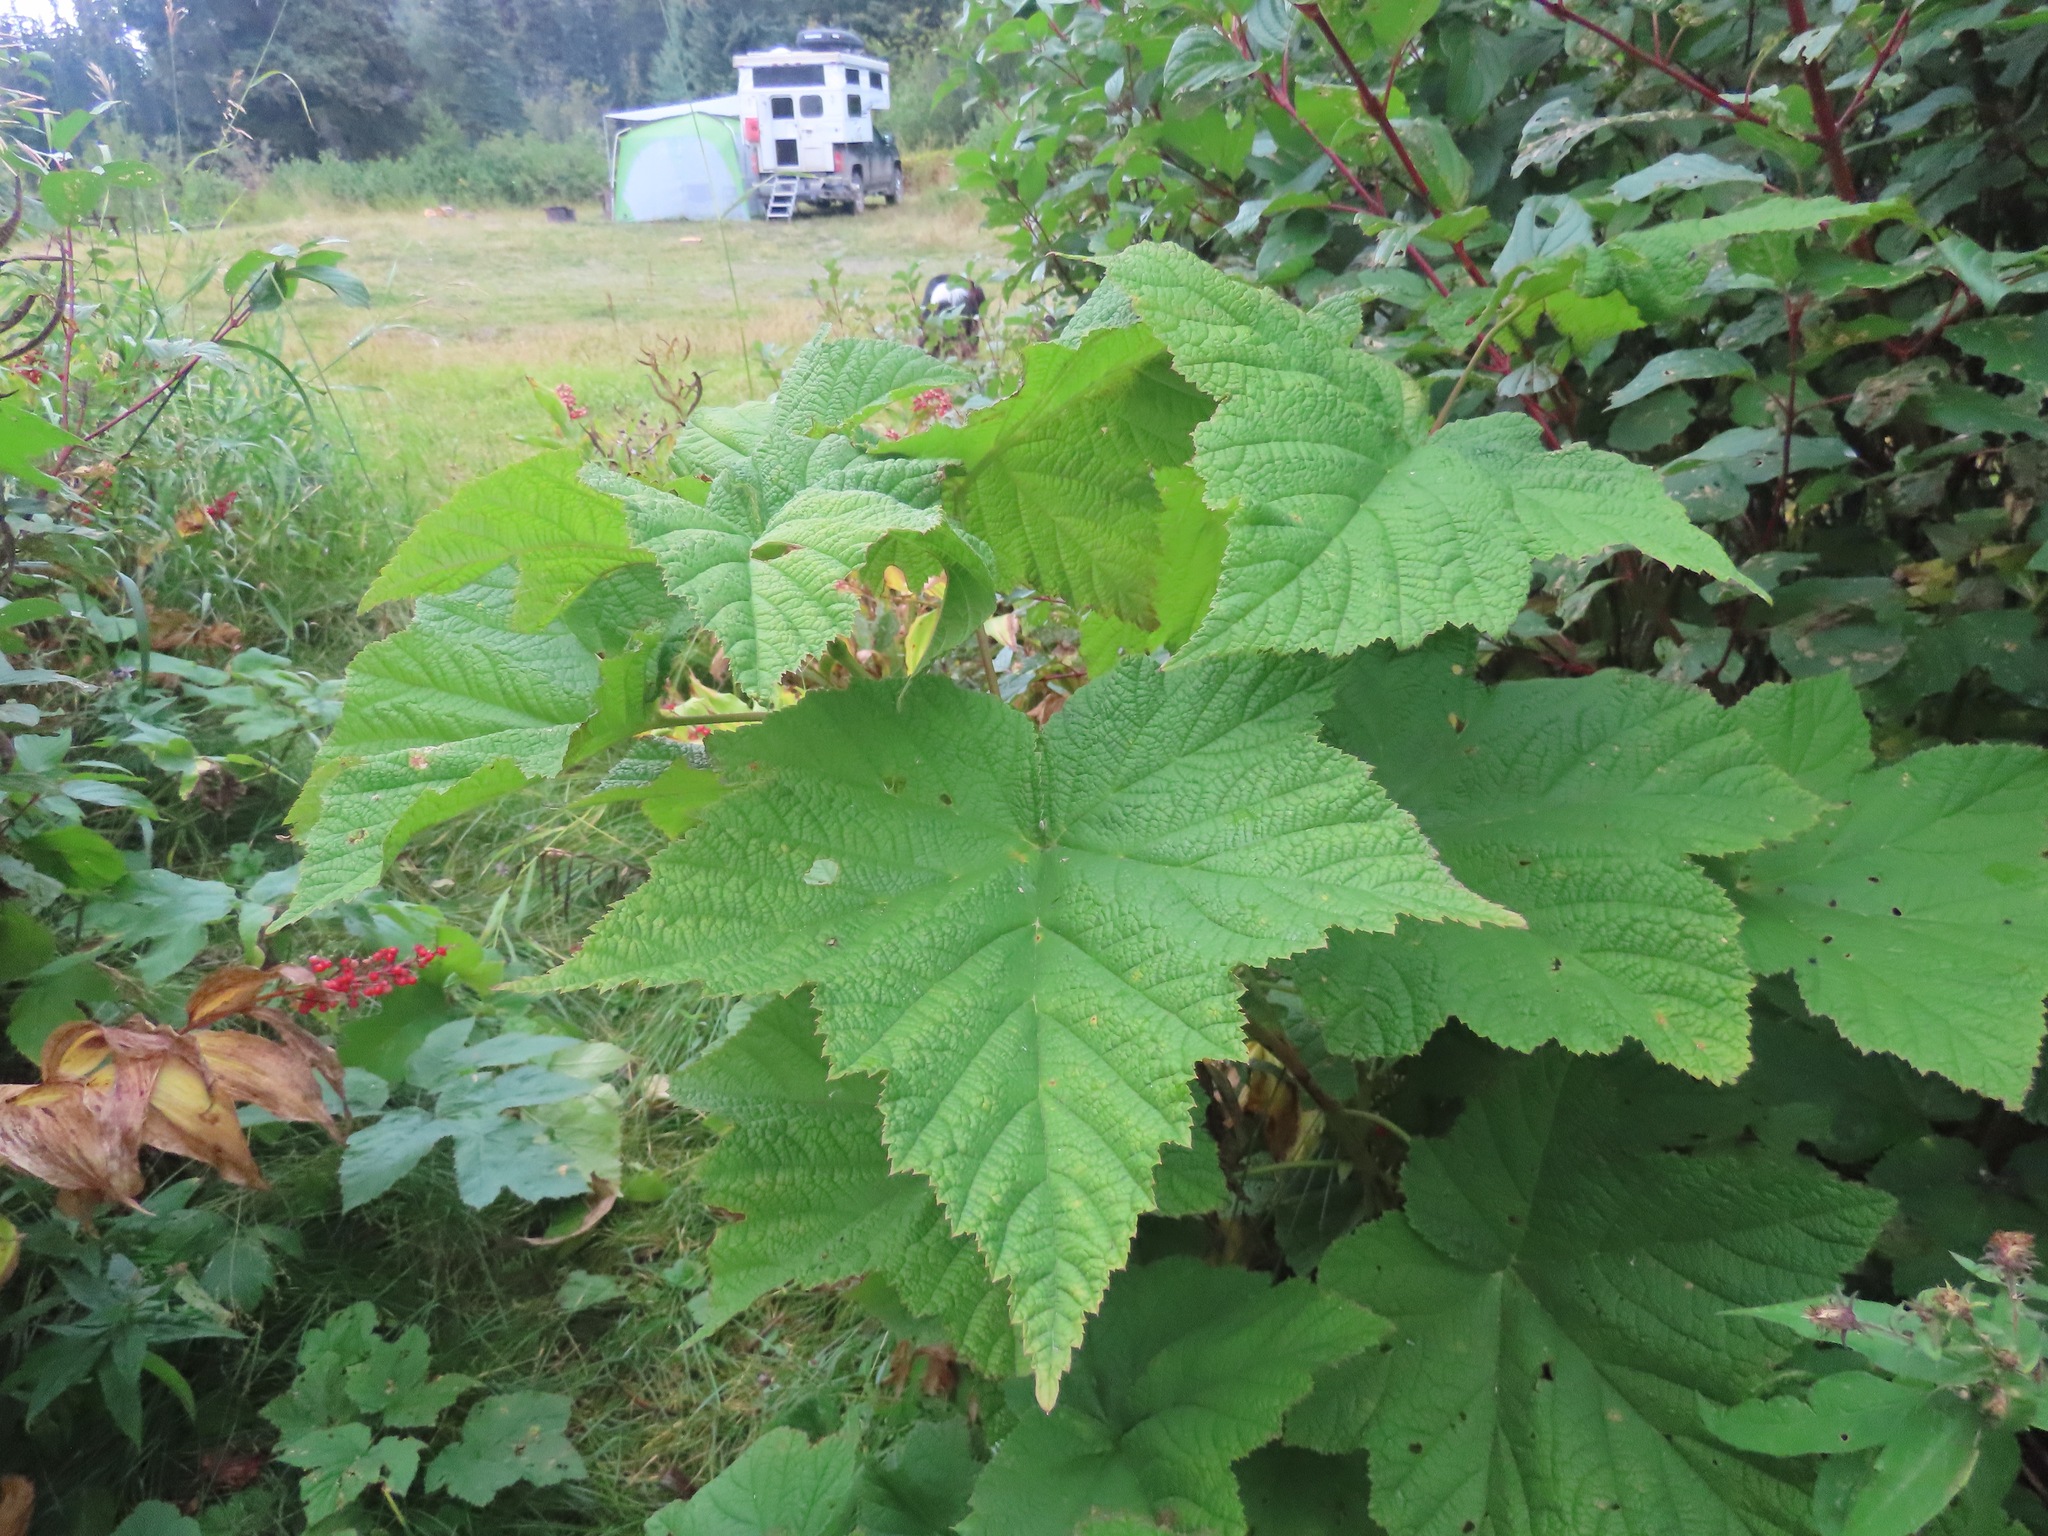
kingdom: Plantae
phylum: Tracheophyta
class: Magnoliopsida
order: Rosales
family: Rosaceae
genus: Rubus
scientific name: Rubus parviflorus
